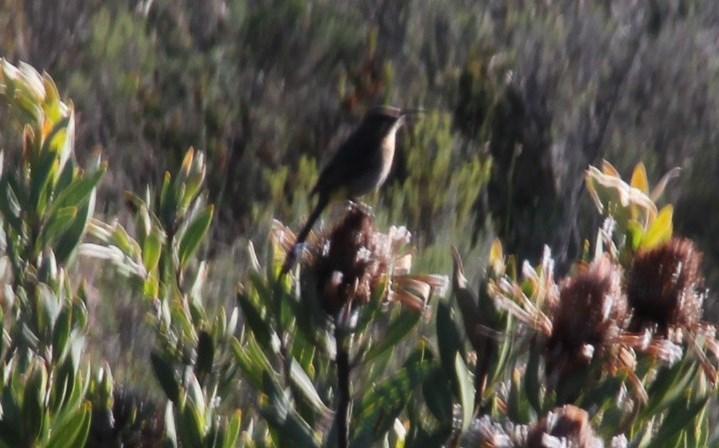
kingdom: Animalia
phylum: Chordata
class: Aves
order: Passeriformes
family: Promeropidae
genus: Promerops
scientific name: Promerops cafer
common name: Cape sugarbird
